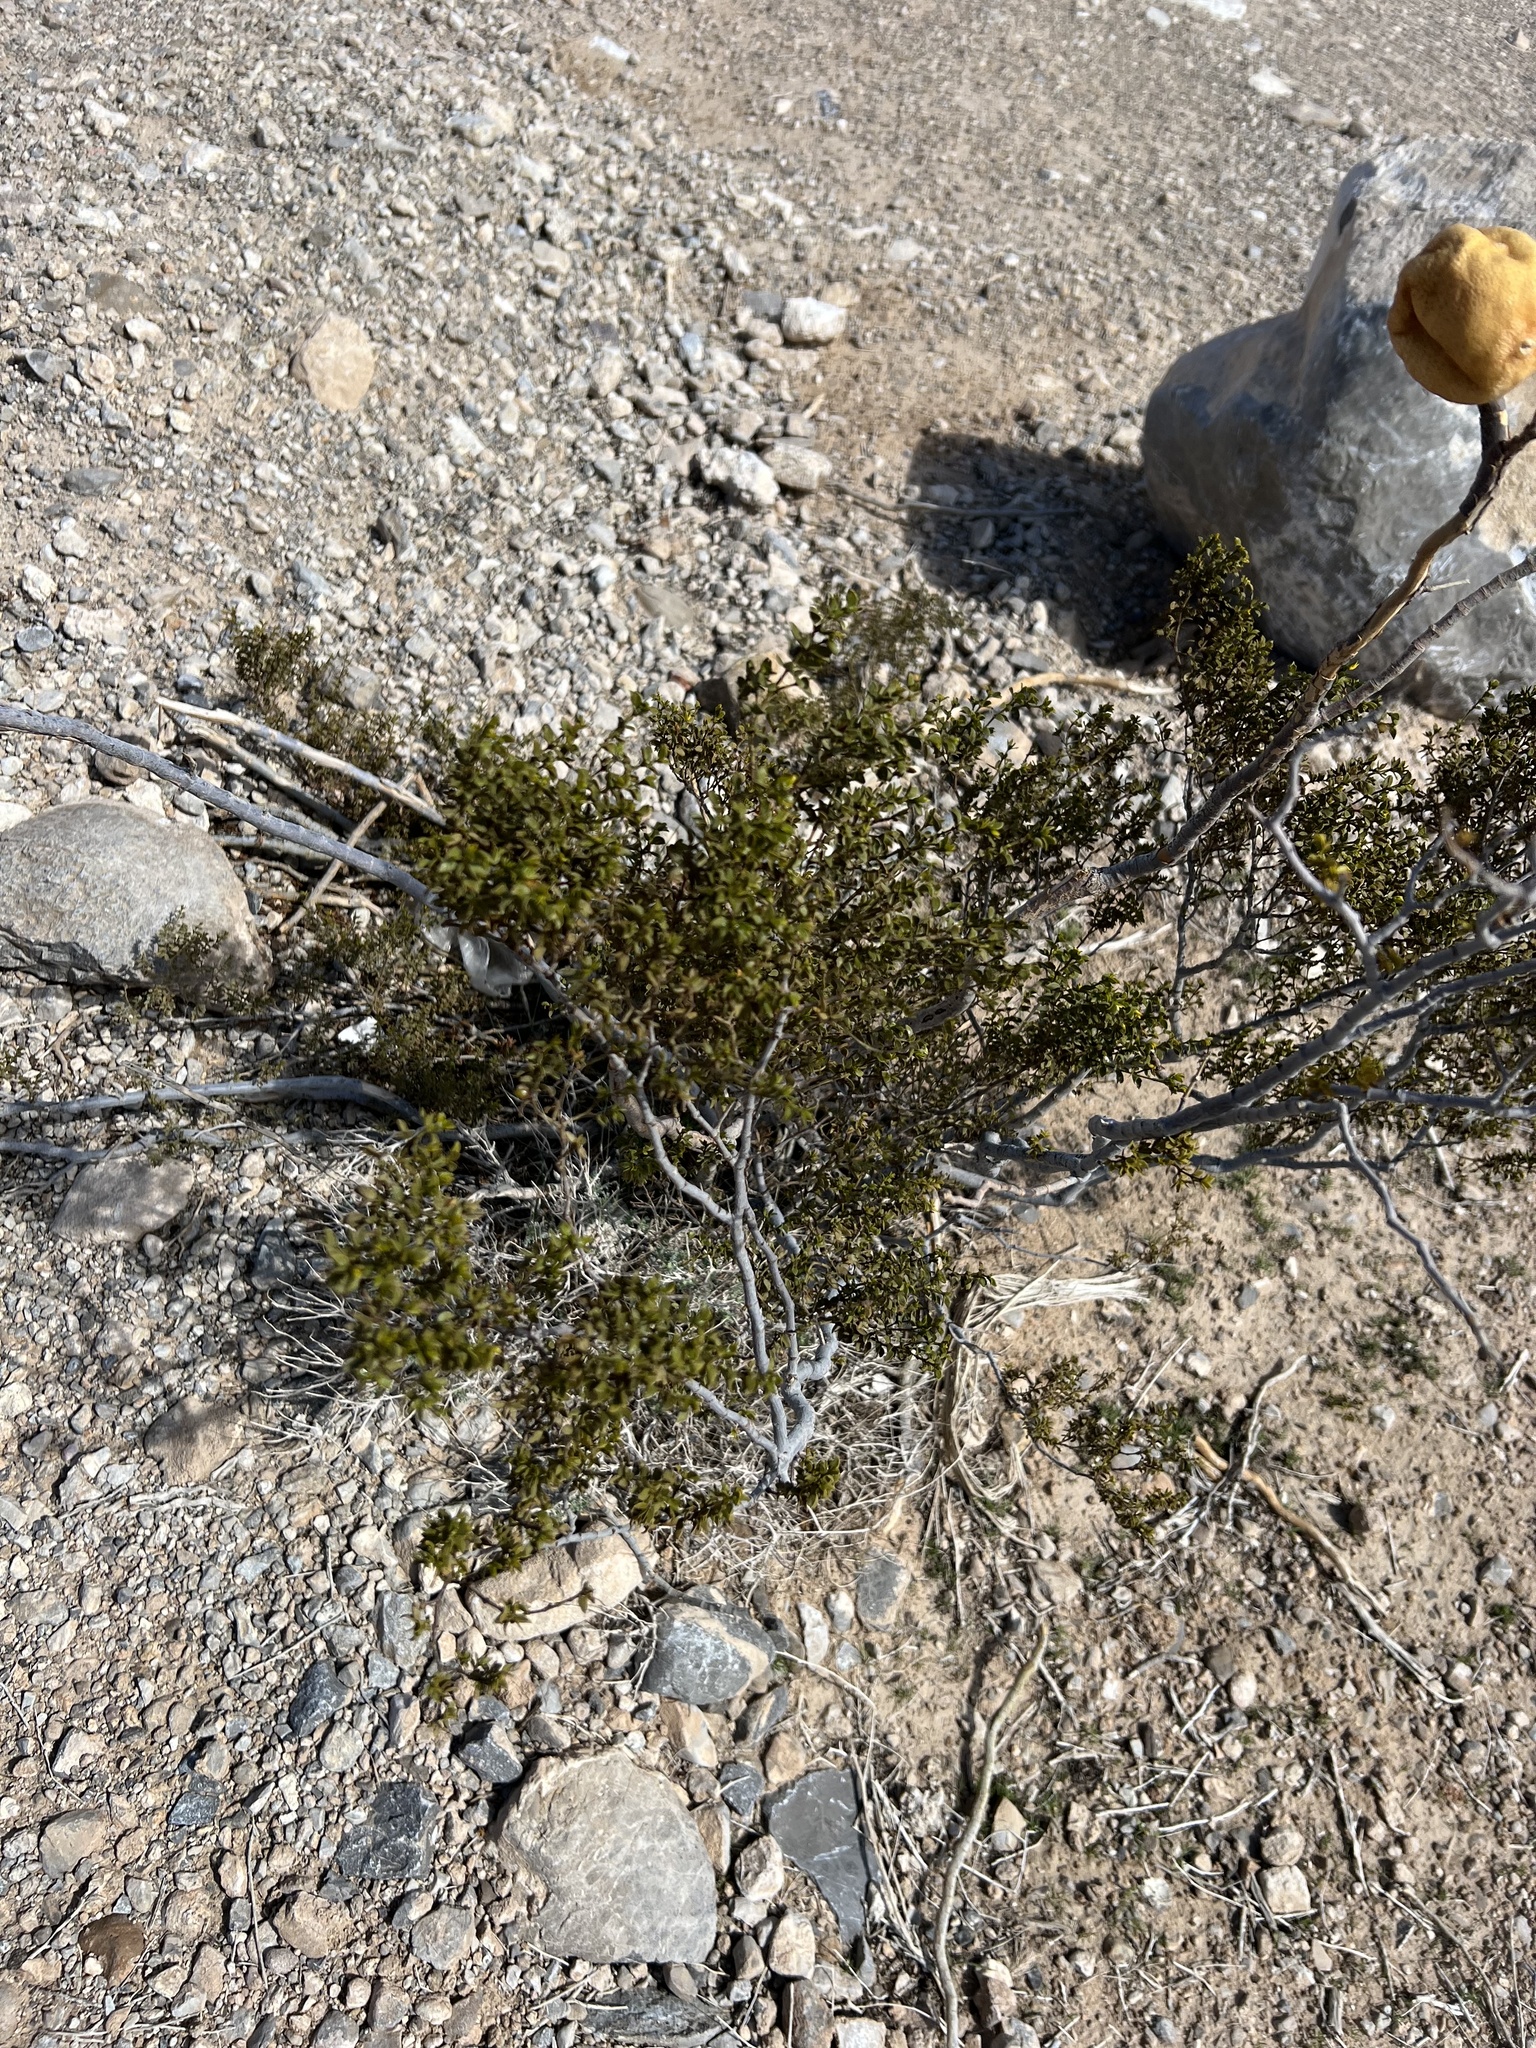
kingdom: Plantae
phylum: Tracheophyta
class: Magnoliopsida
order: Zygophyllales
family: Zygophyllaceae
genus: Larrea
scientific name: Larrea tridentata
